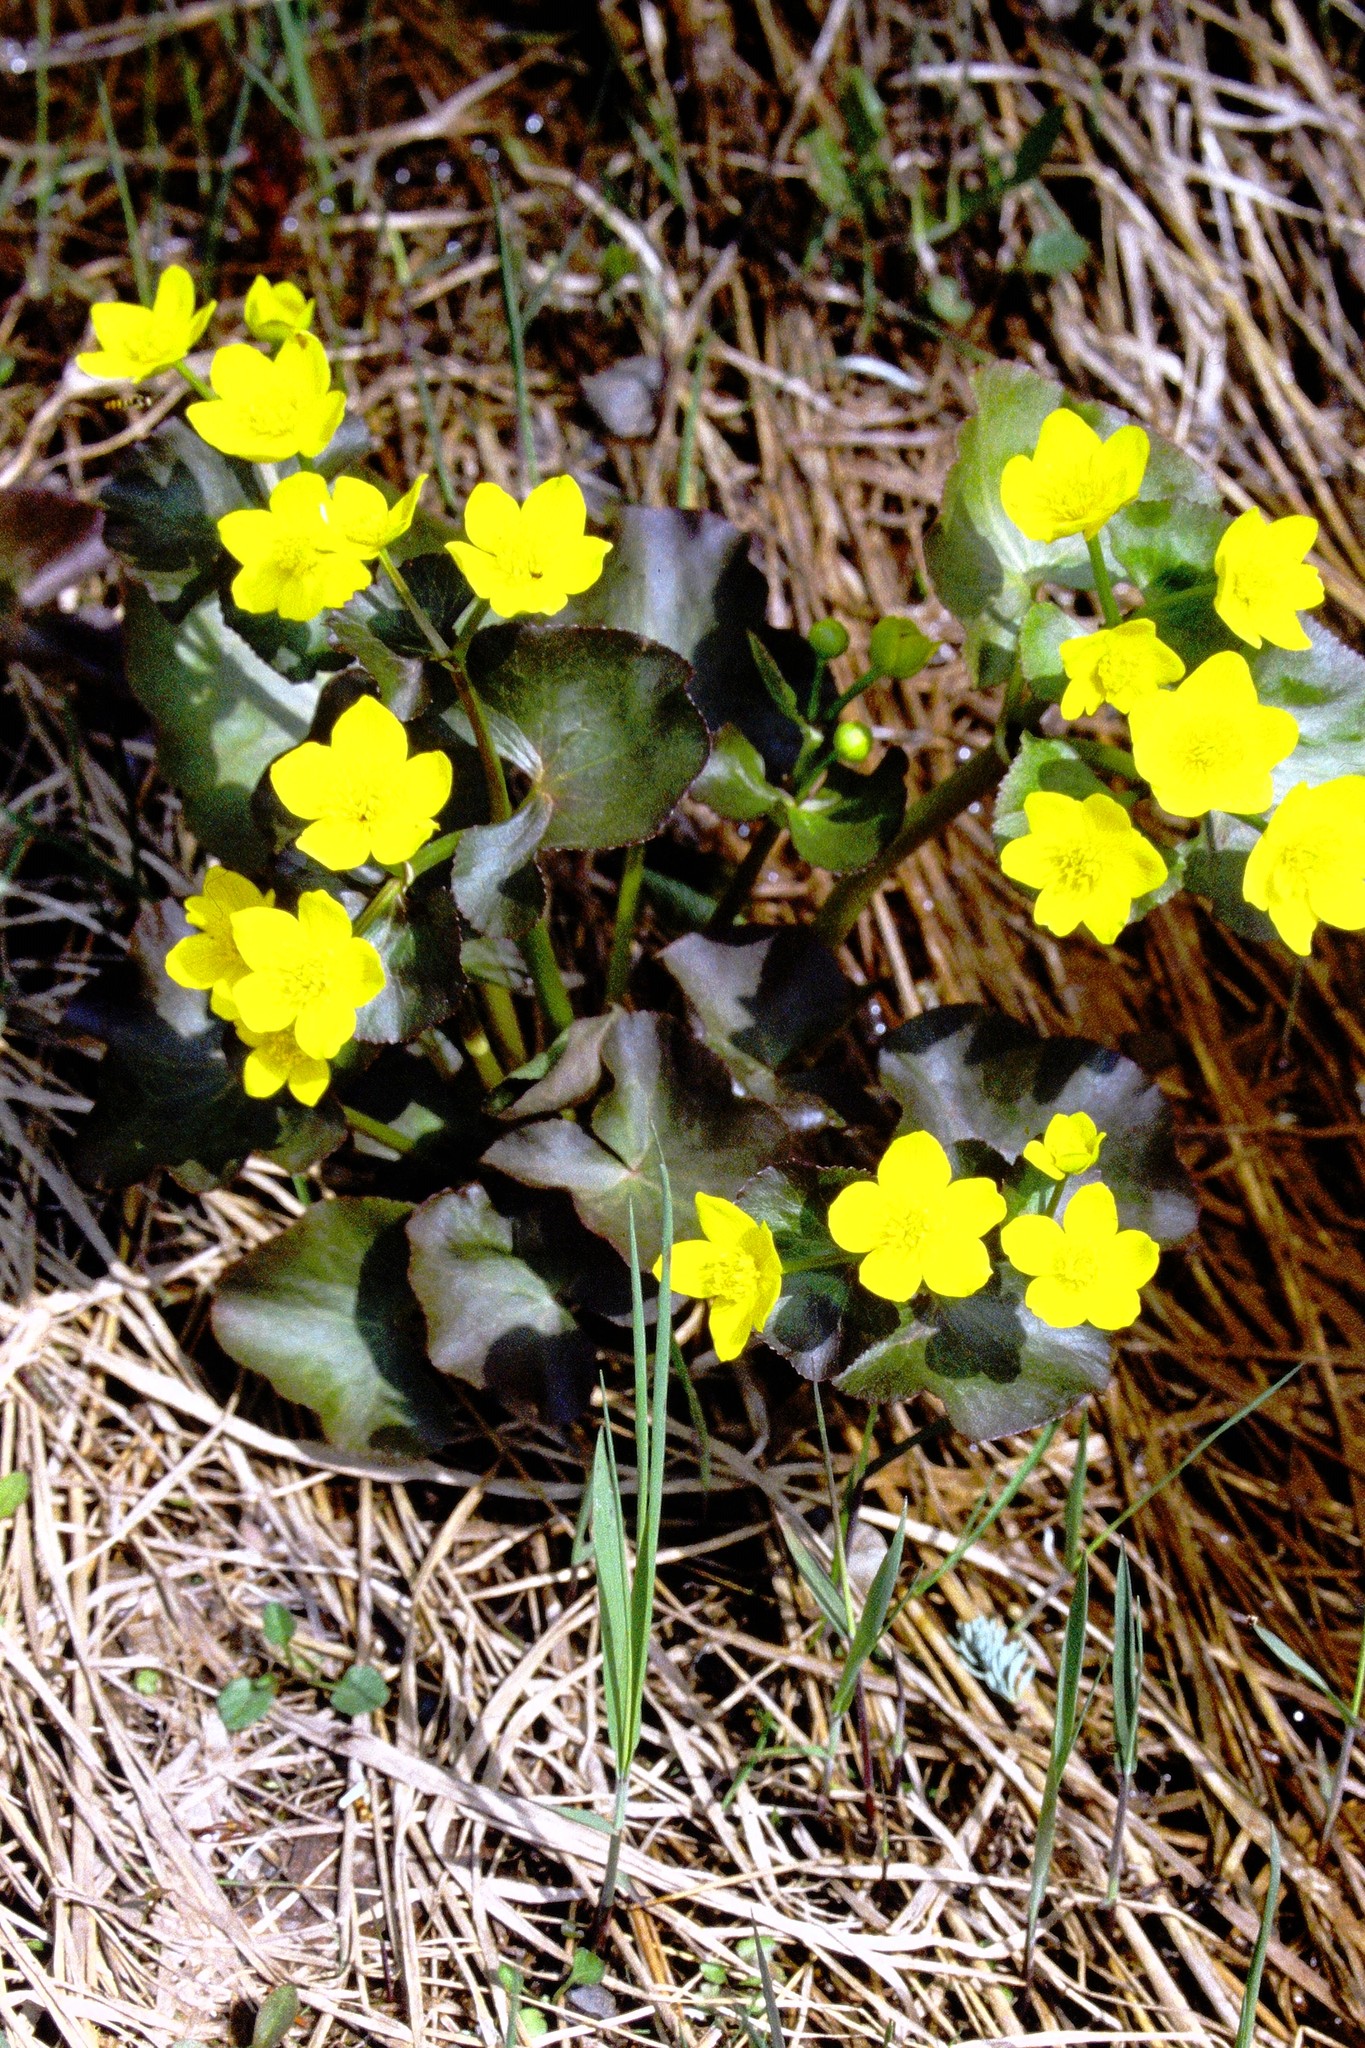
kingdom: Plantae
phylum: Tracheophyta
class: Magnoliopsida
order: Ranunculales
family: Ranunculaceae
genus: Caltha
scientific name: Caltha palustris
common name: Marsh marigold
